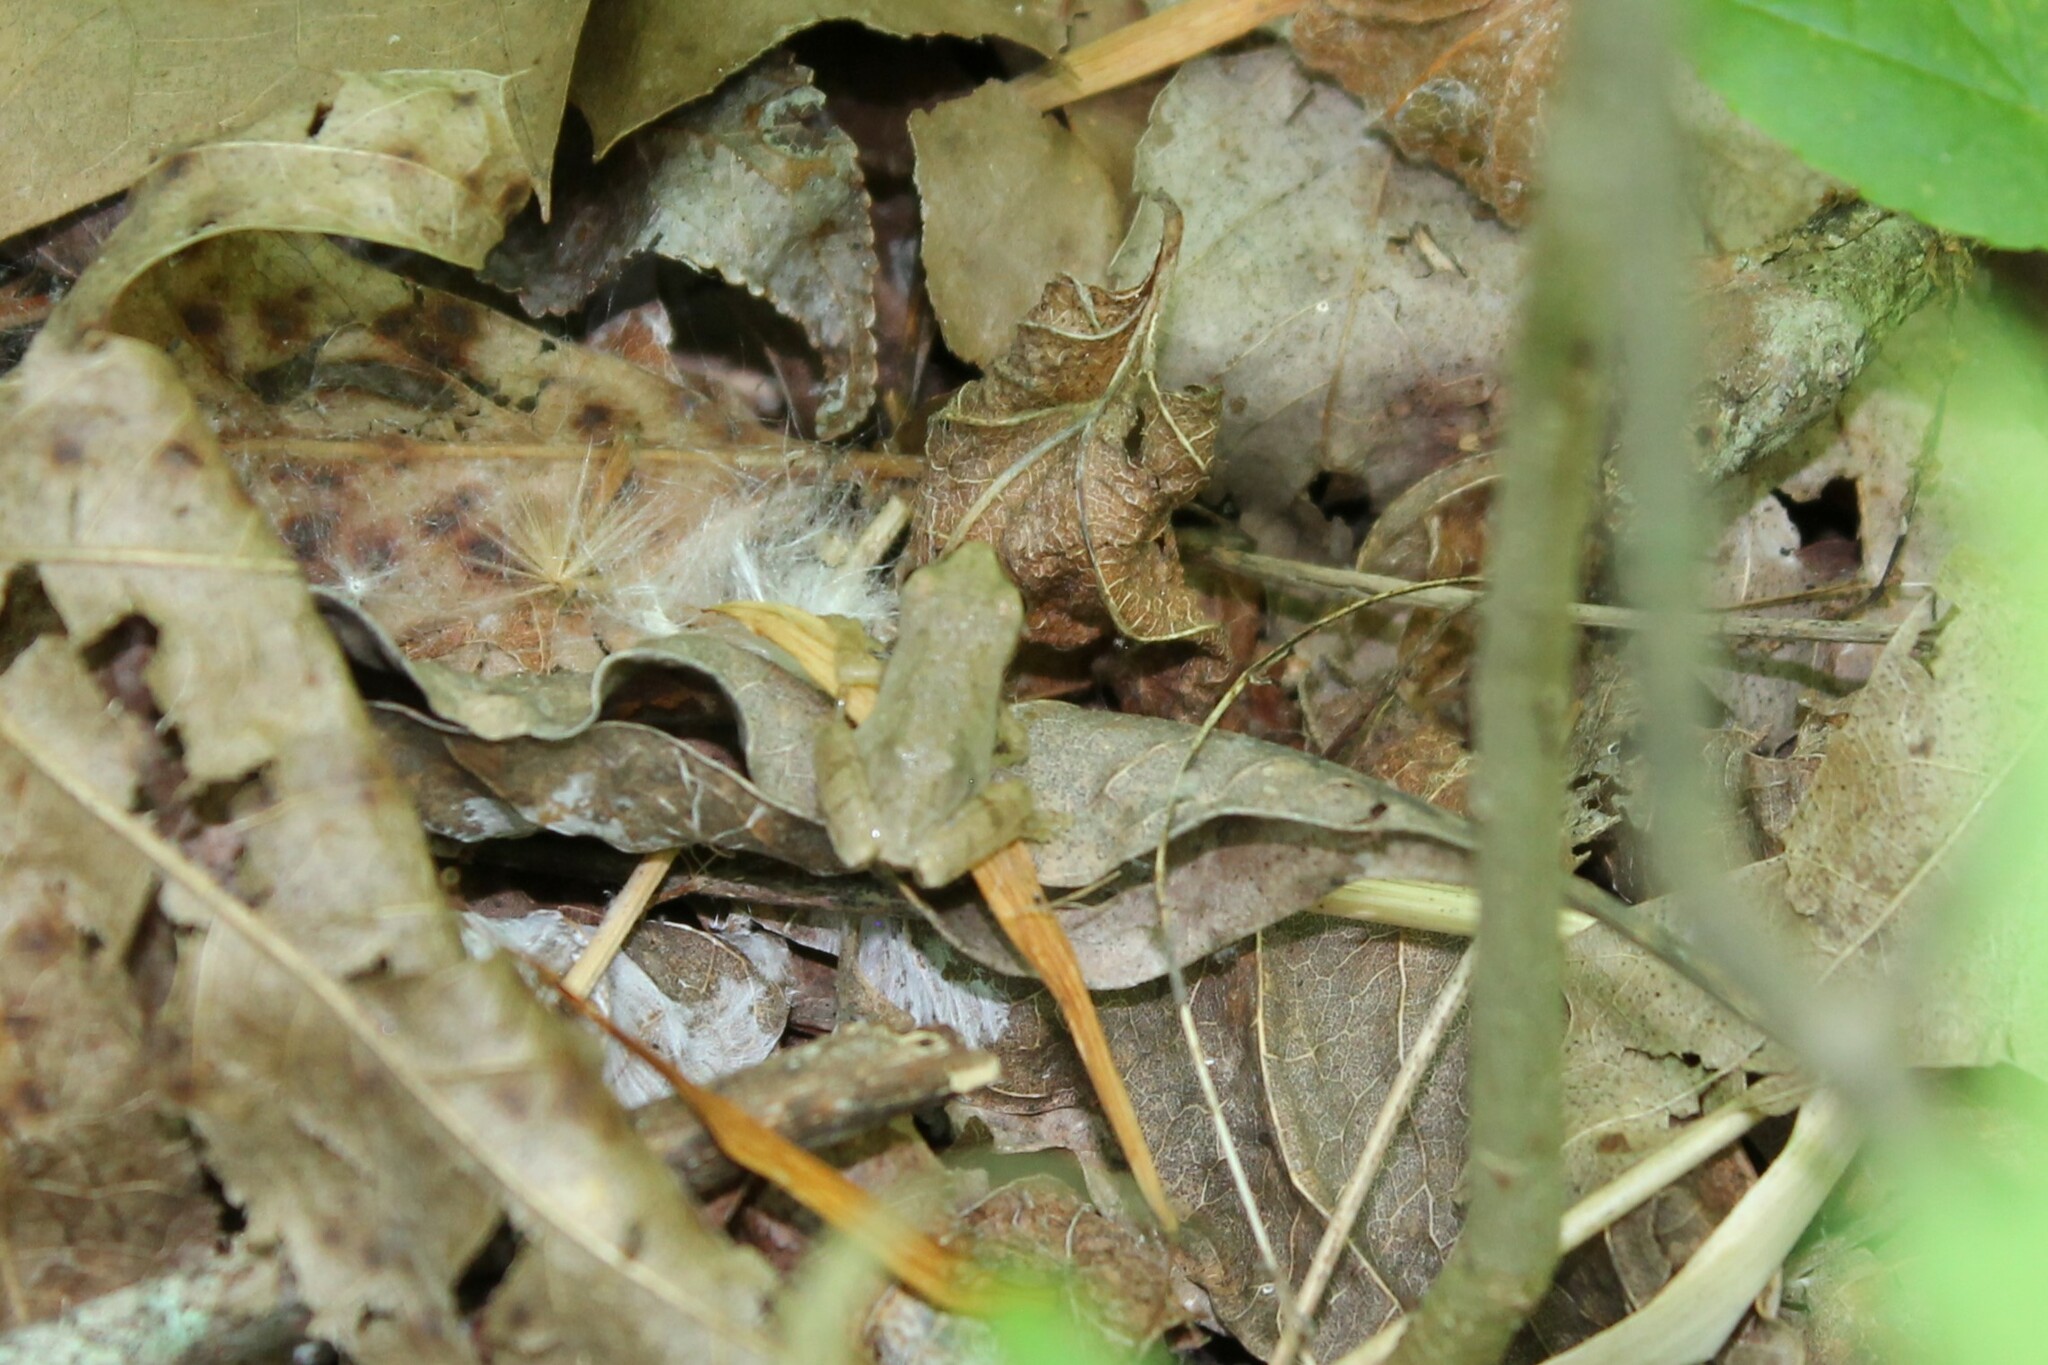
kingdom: Animalia
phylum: Chordata
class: Amphibia
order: Anura
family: Hylidae
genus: Pseudacris
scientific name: Pseudacris crucifer
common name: Spring peeper
